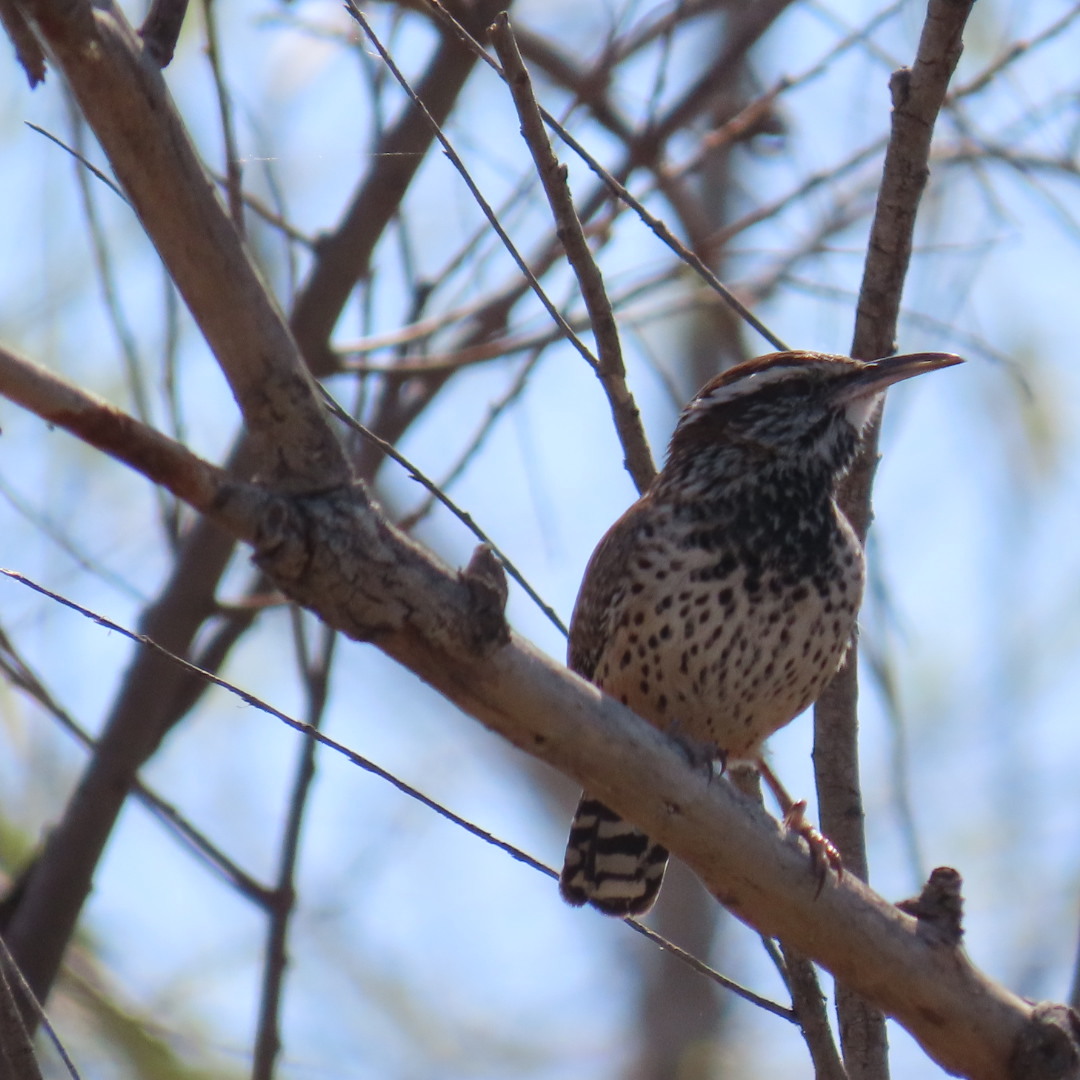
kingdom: Animalia
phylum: Chordata
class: Aves
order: Passeriformes
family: Troglodytidae
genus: Campylorhynchus
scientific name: Campylorhynchus brunneicapillus
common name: Cactus wren
